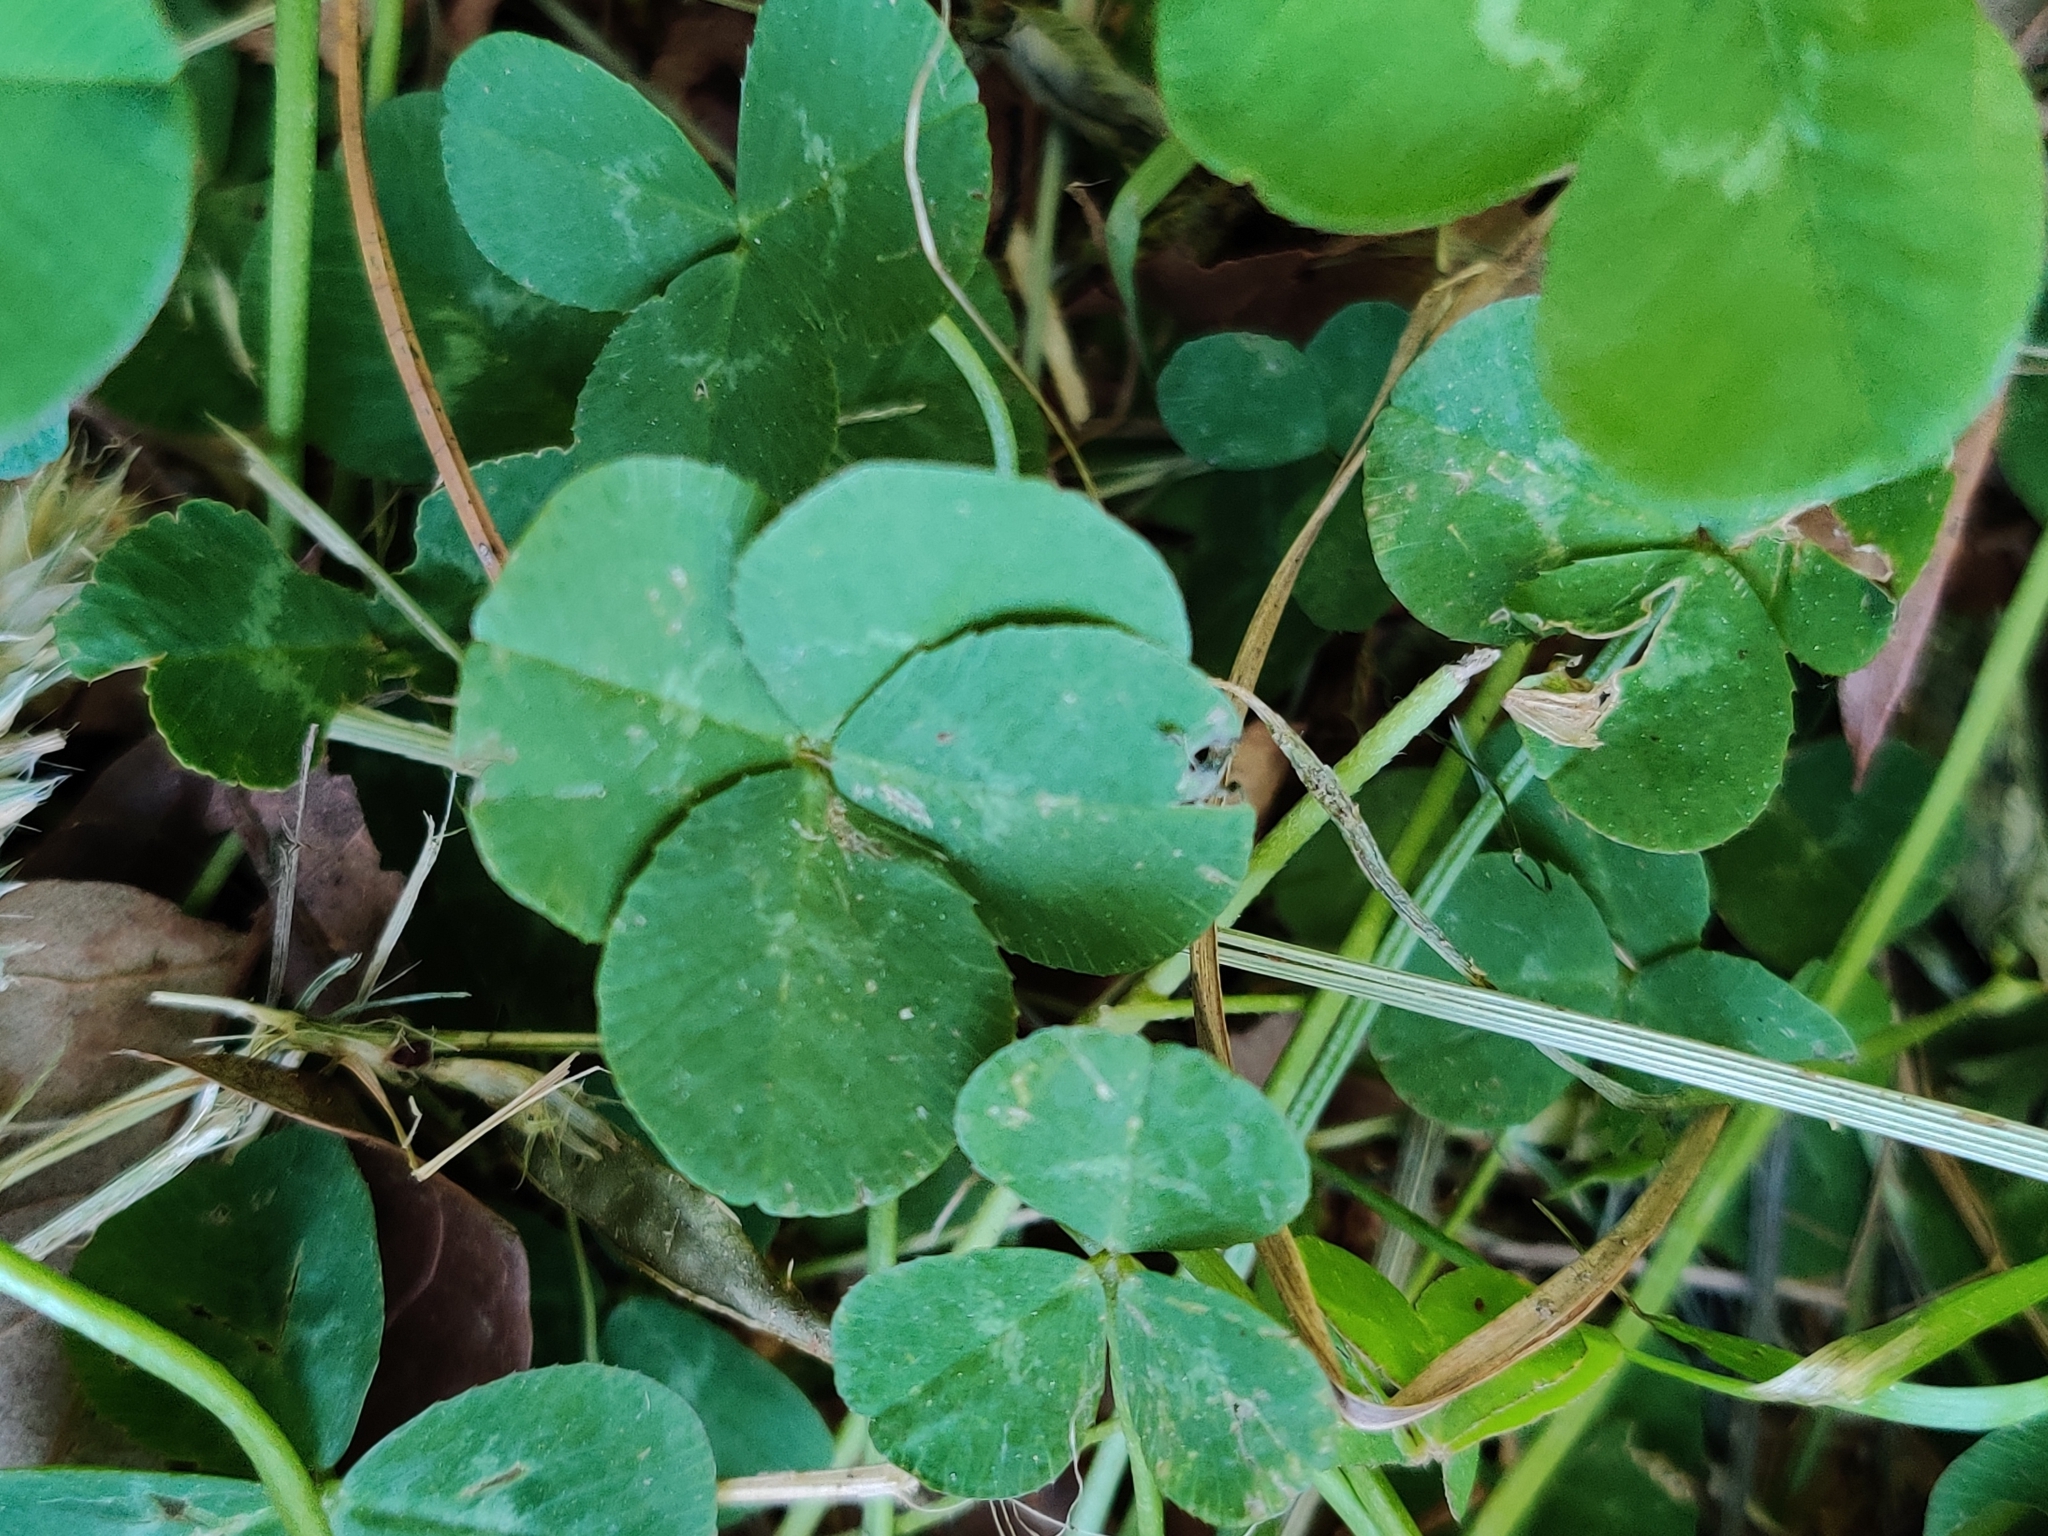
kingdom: Plantae
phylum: Tracheophyta
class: Magnoliopsida
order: Fabales
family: Fabaceae
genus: Trifolium
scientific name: Trifolium repens
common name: White clover
